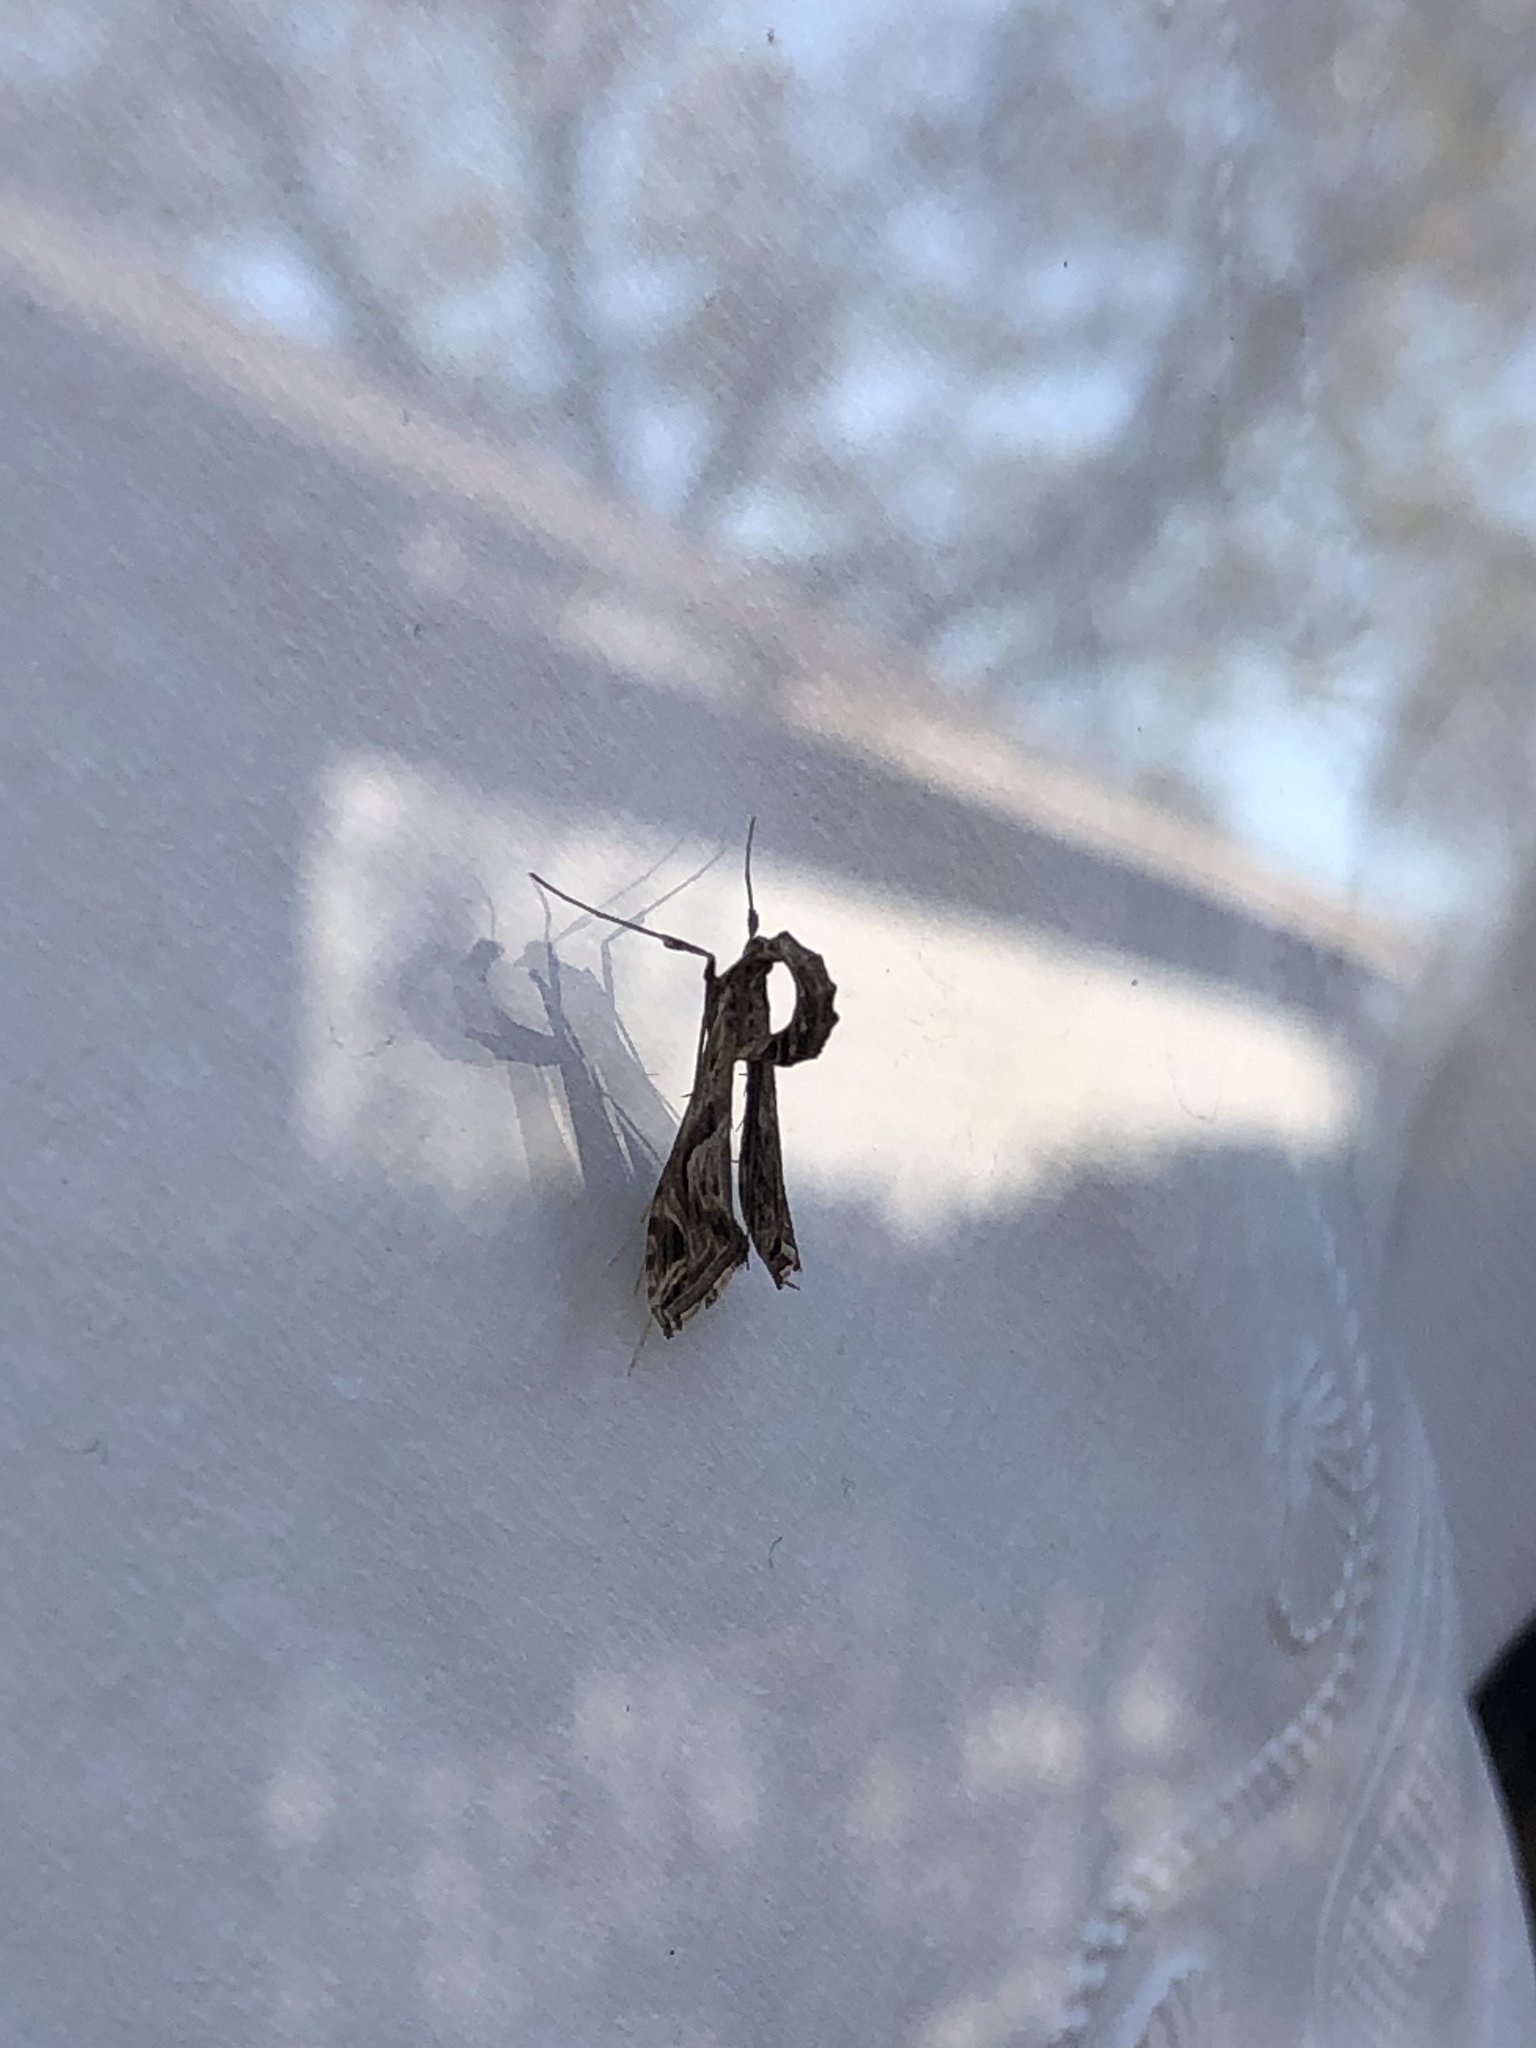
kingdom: Animalia
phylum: Arthropoda
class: Insecta
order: Lepidoptera
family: Crambidae
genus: Lineodes
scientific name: Lineodes integra
